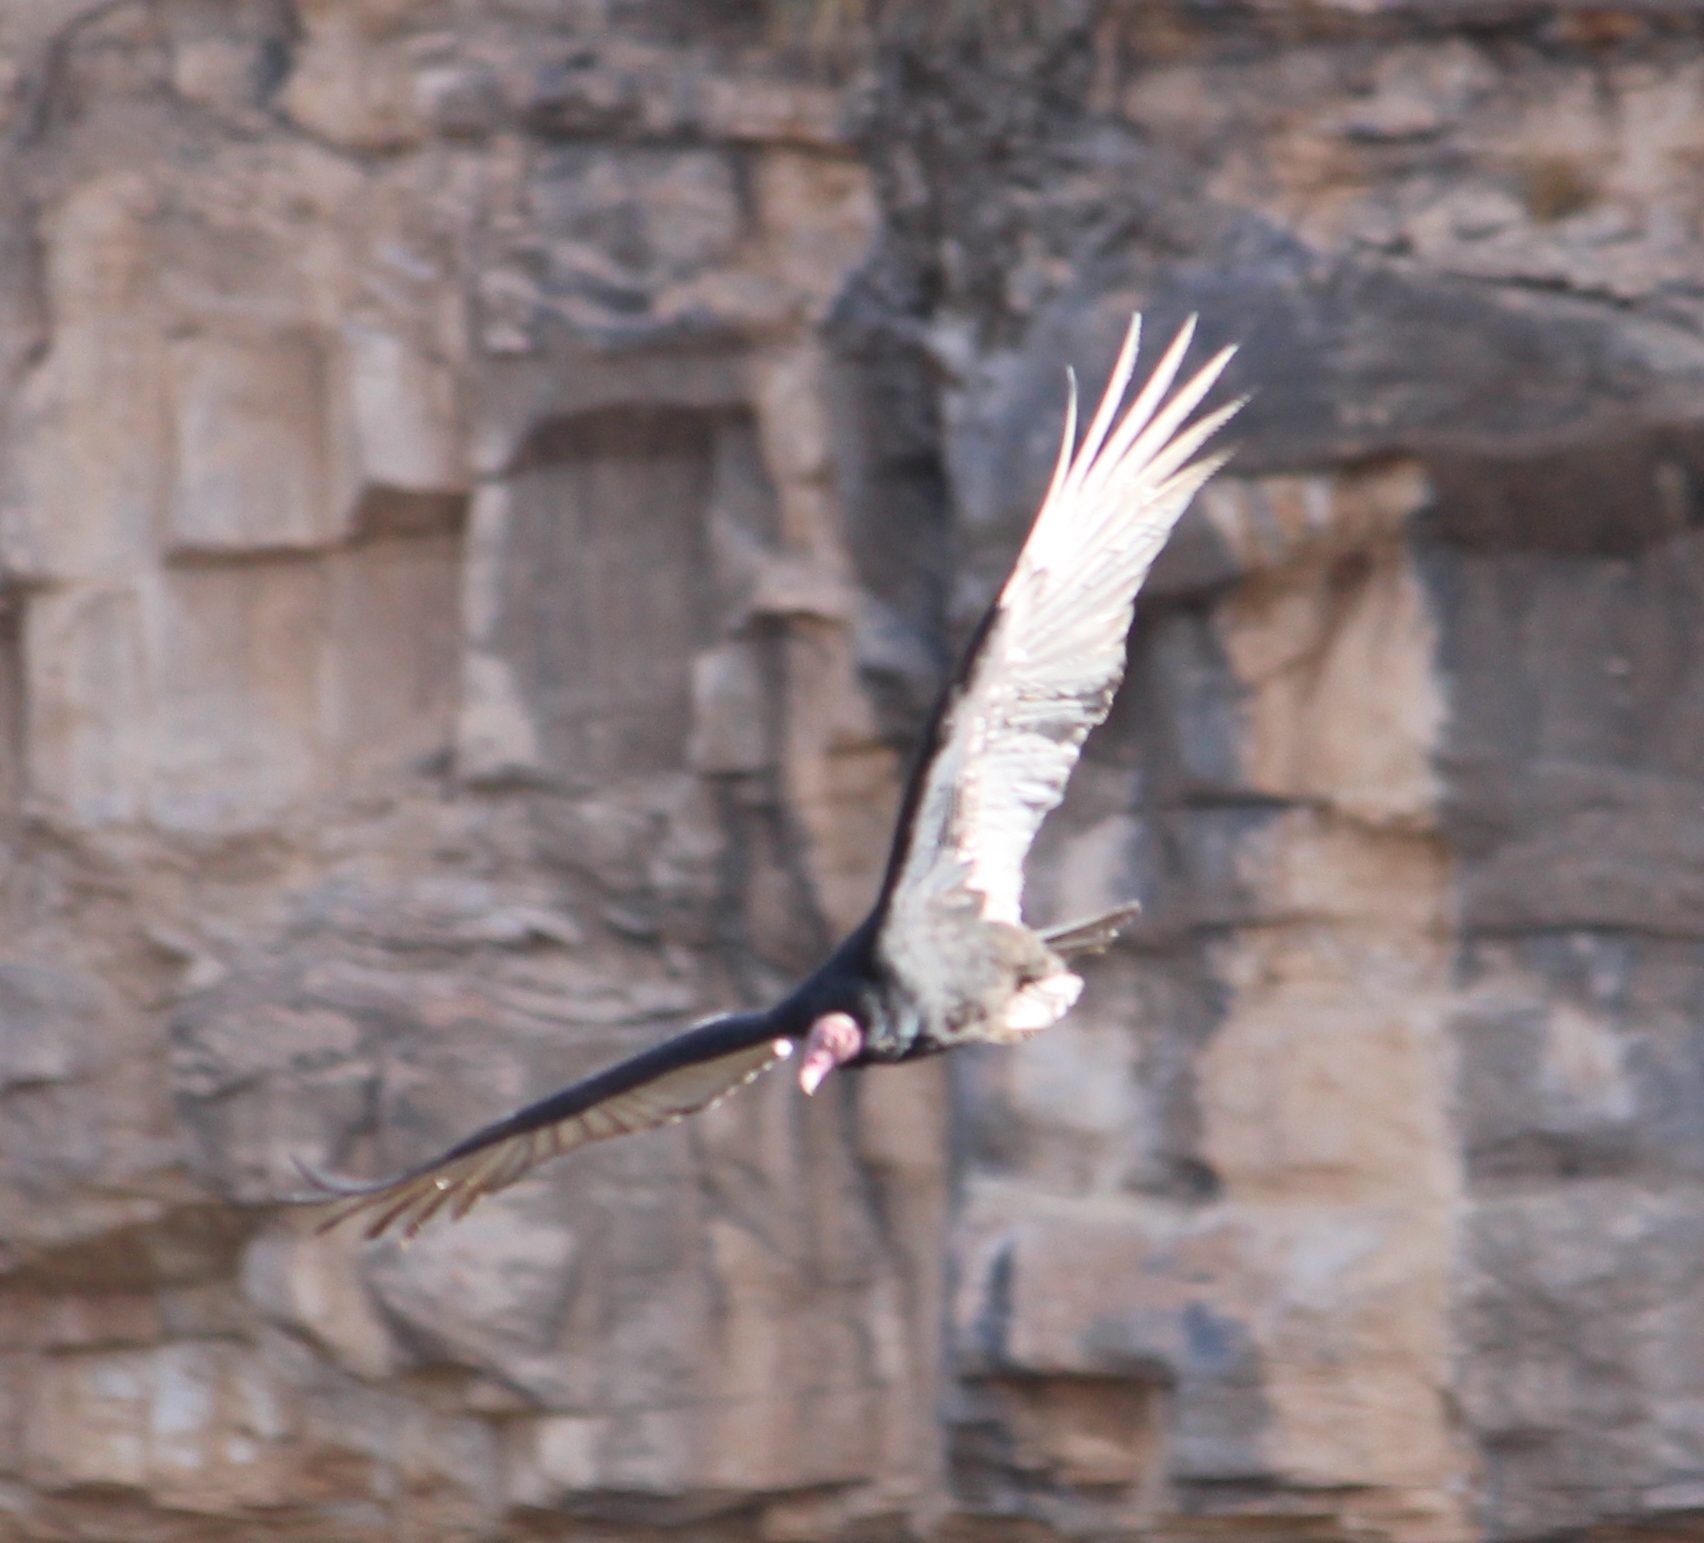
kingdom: Animalia
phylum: Chordata
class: Aves
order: Accipitriformes
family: Cathartidae
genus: Cathartes
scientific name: Cathartes aura
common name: Turkey vulture
